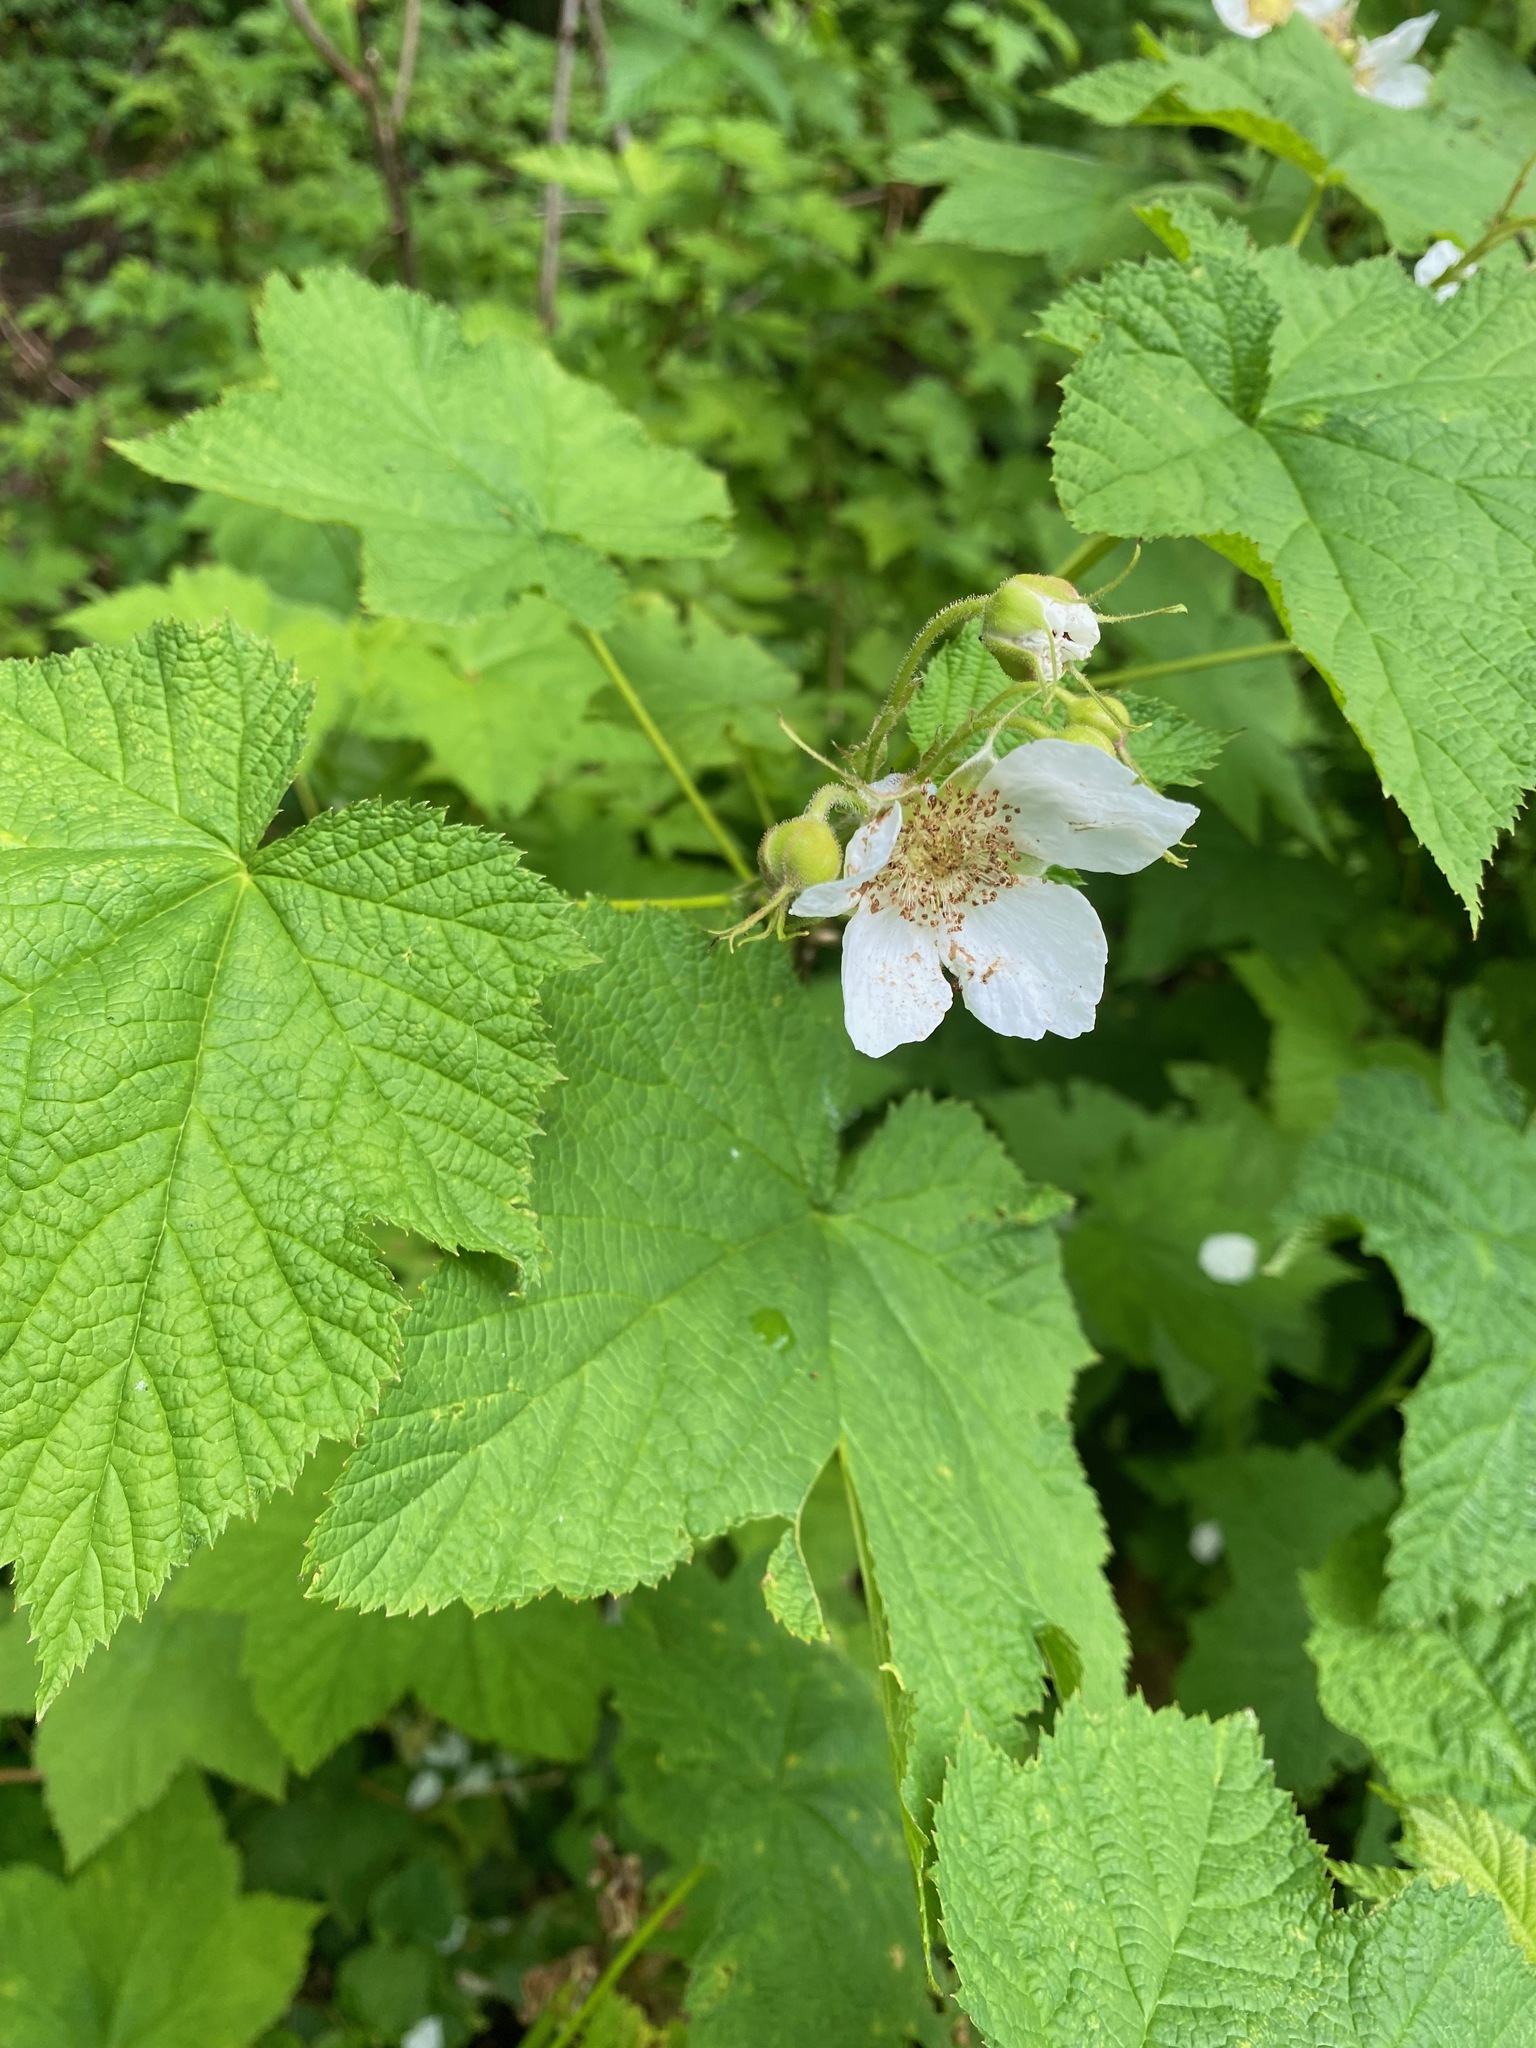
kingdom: Plantae
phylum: Tracheophyta
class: Magnoliopsida
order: Rosales
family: Rosaceae
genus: Rubus
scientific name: Rubus parviflorus
